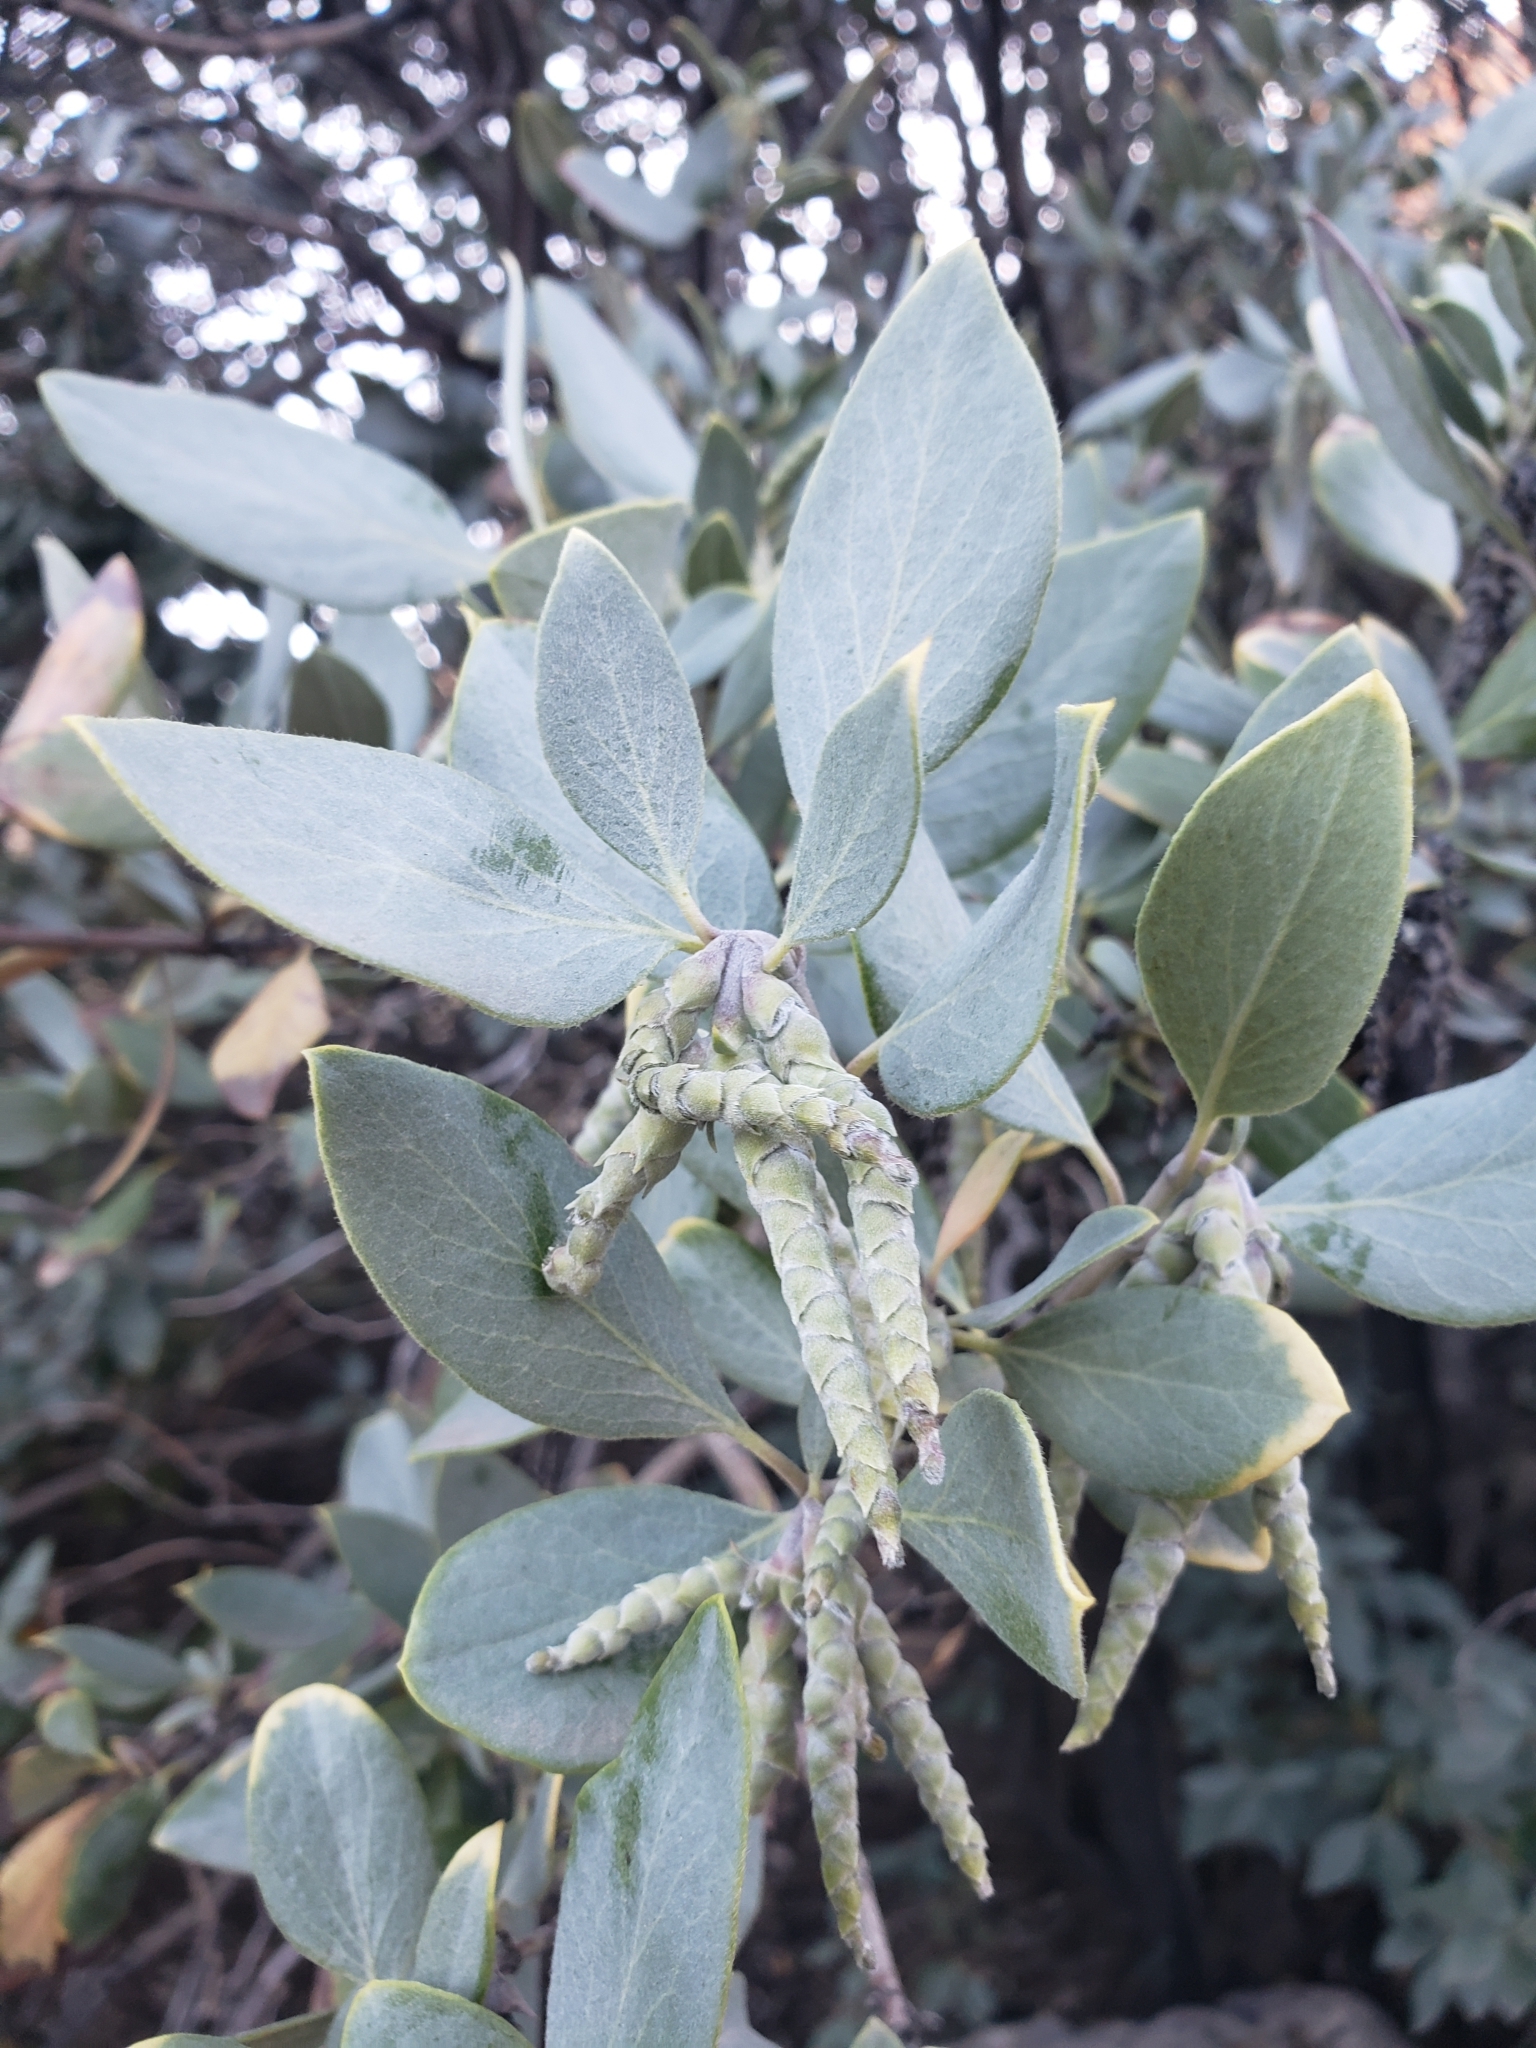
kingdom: Plantae
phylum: Tracheophyta
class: Magnoliopsida
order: Garryales
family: Garryaceae
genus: Garrya
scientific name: Garrya flavescens
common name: Ashy silk-tassel
